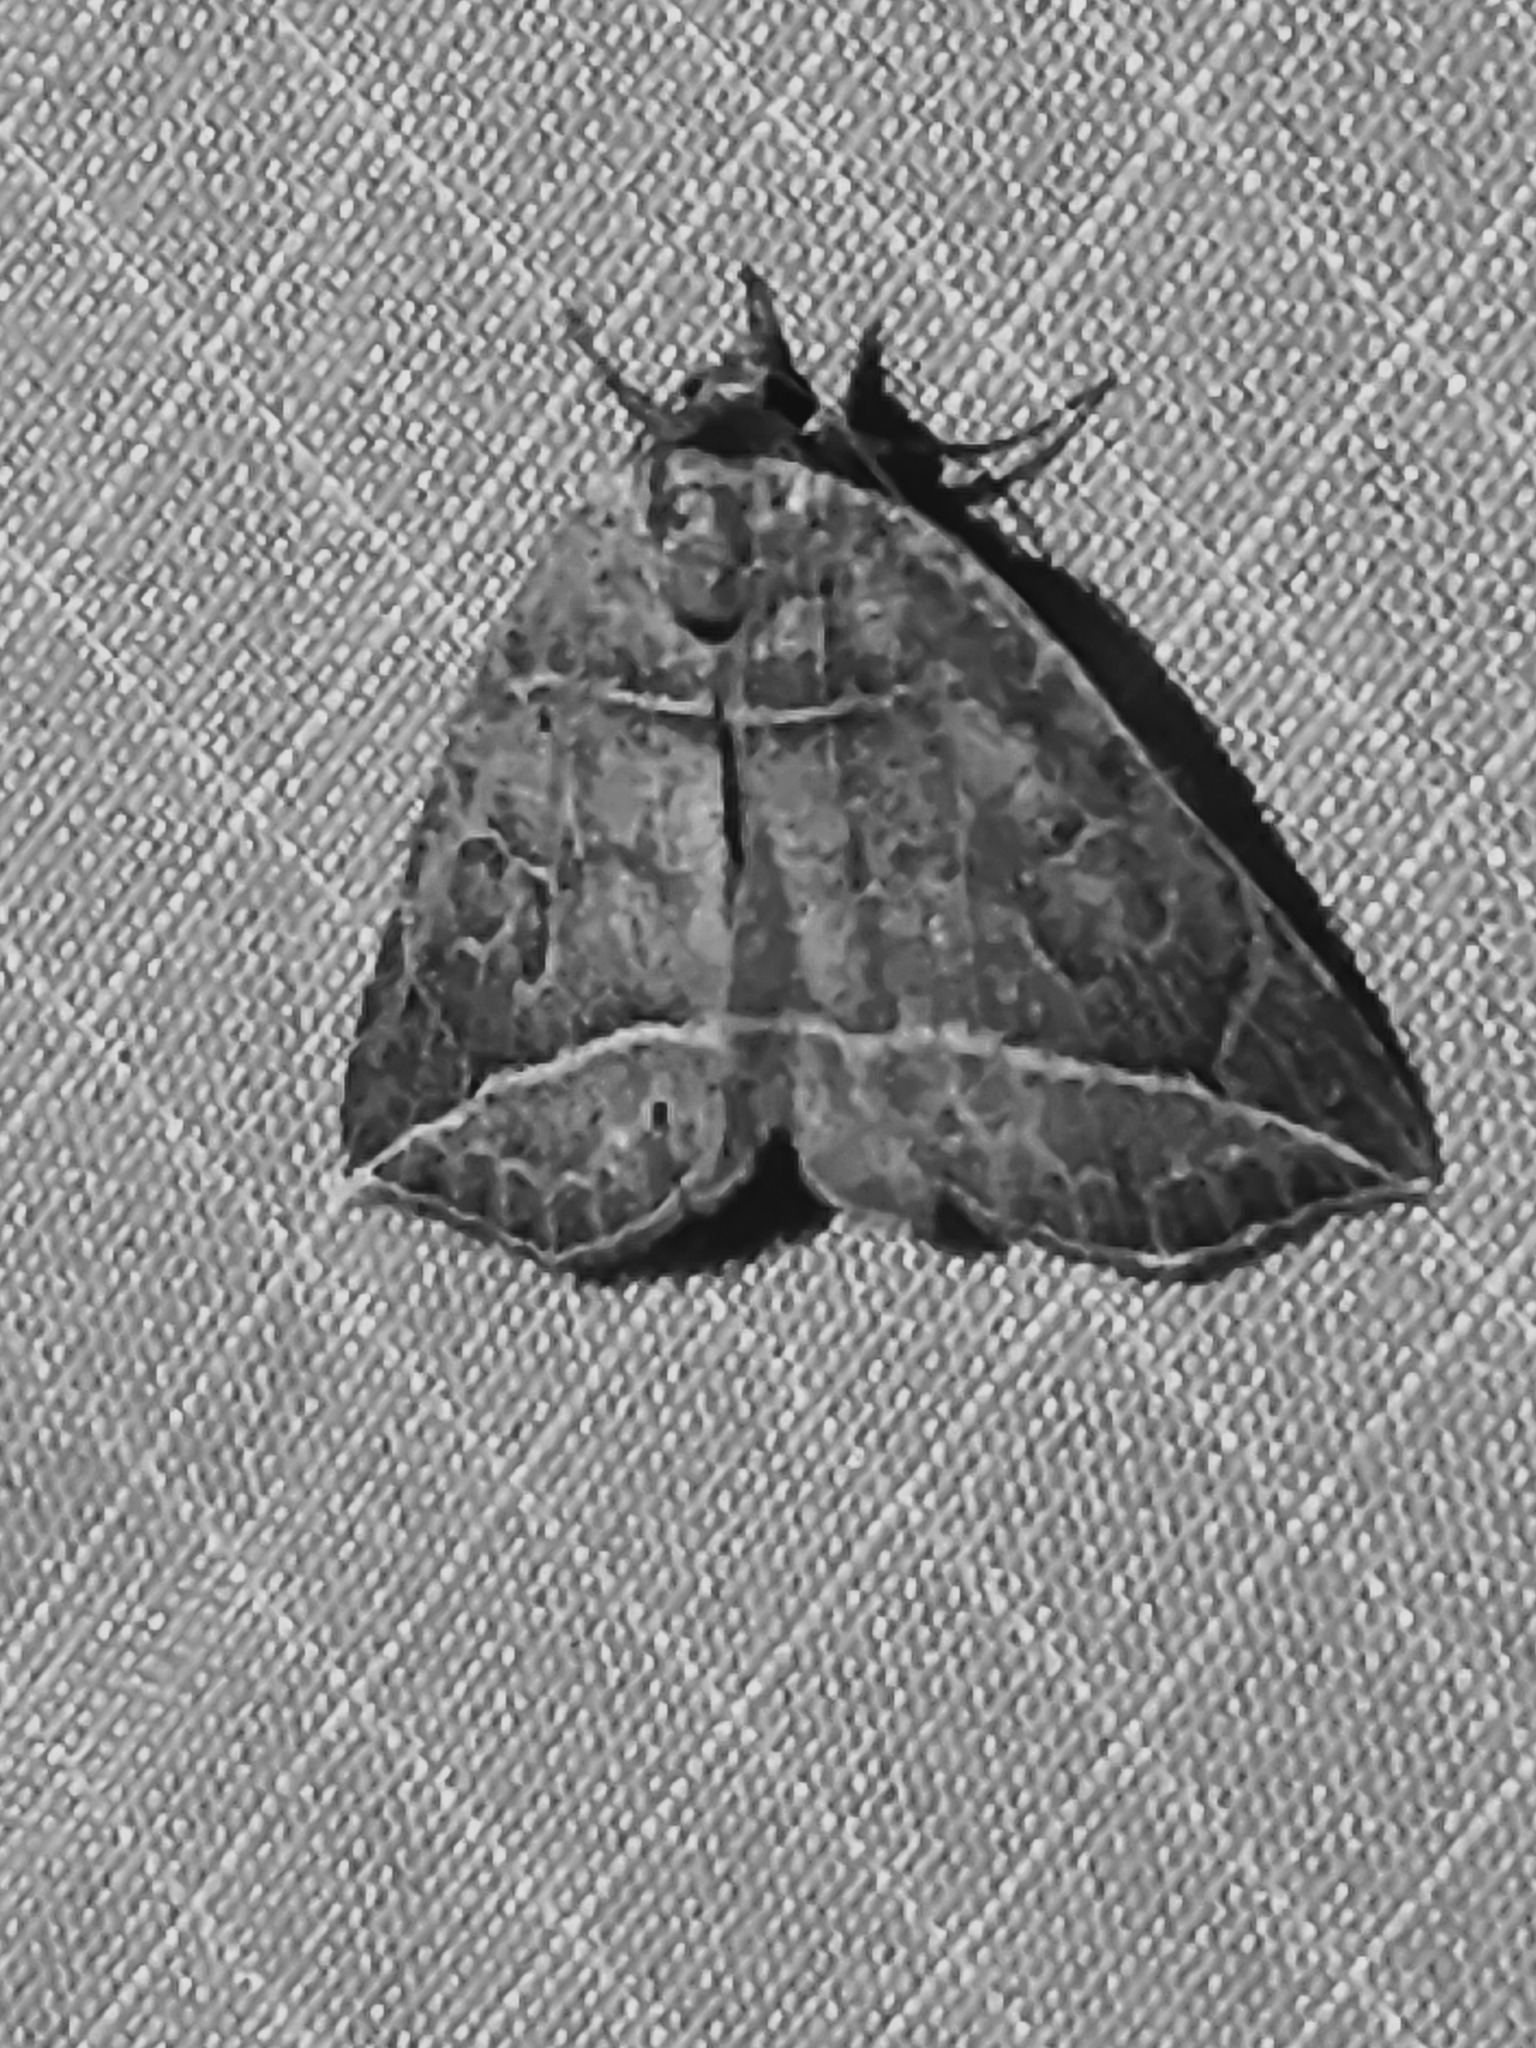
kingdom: Animalia
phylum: Arthropoda
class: Insecta
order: Lepidoptera
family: Erebidae
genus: Isogona
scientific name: Isogona tenuis
